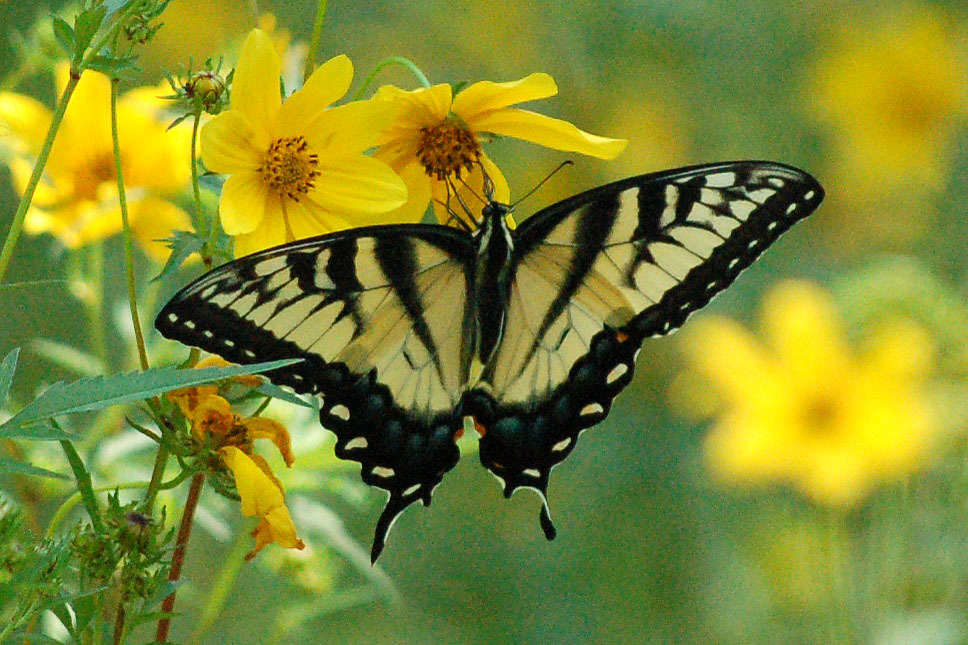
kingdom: Animalia
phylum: Arthropoda
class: Insecta
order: Lepidoptera
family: Papilionidae
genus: Papilio
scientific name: Papilio glaucus
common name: Tiger swallowtail
